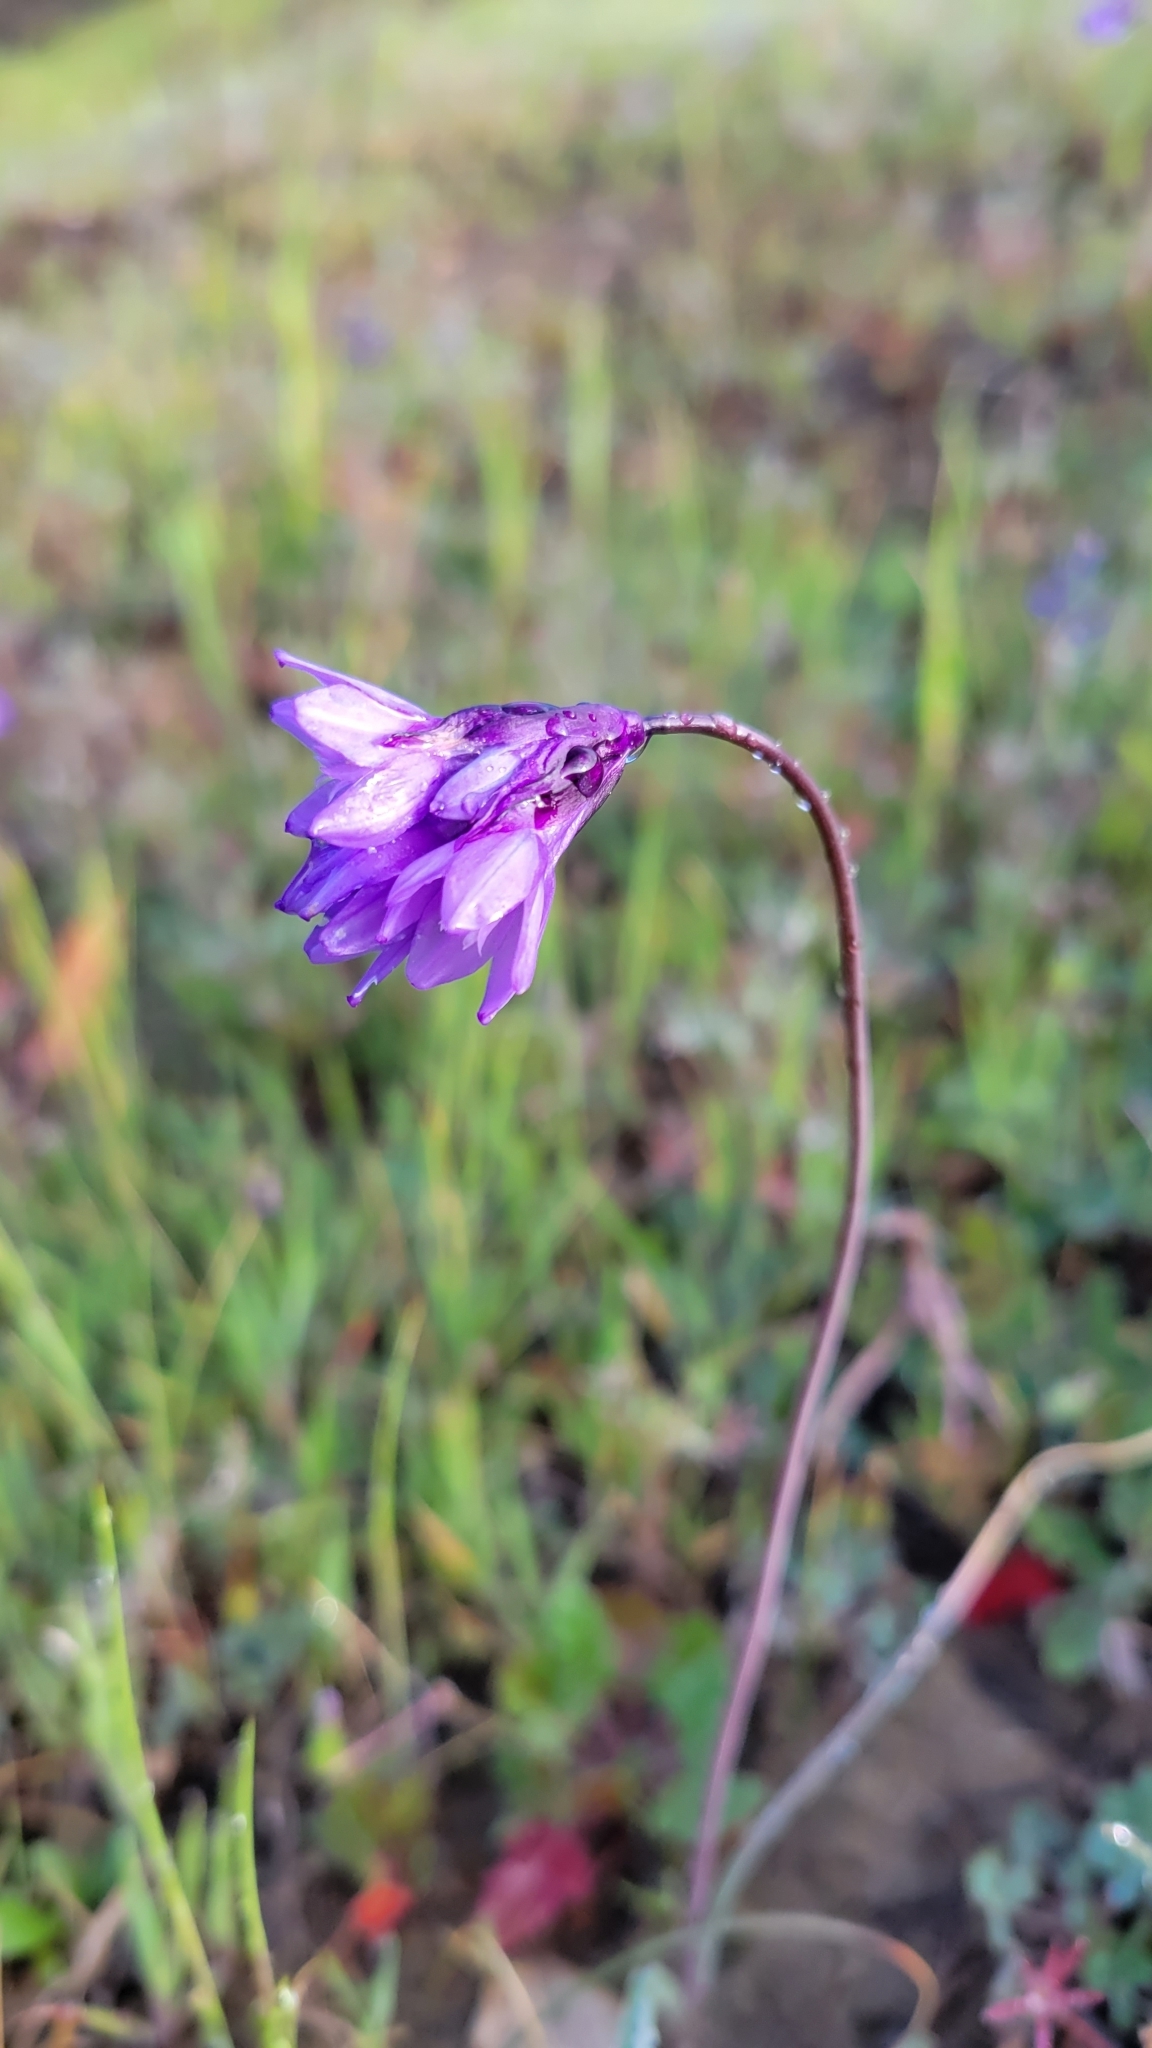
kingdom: Plantae
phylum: Tracheophyta
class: Liliopsida
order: Asparagales
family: Asparagaceae
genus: Dipterostemon
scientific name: Dipterostemon capitatus
